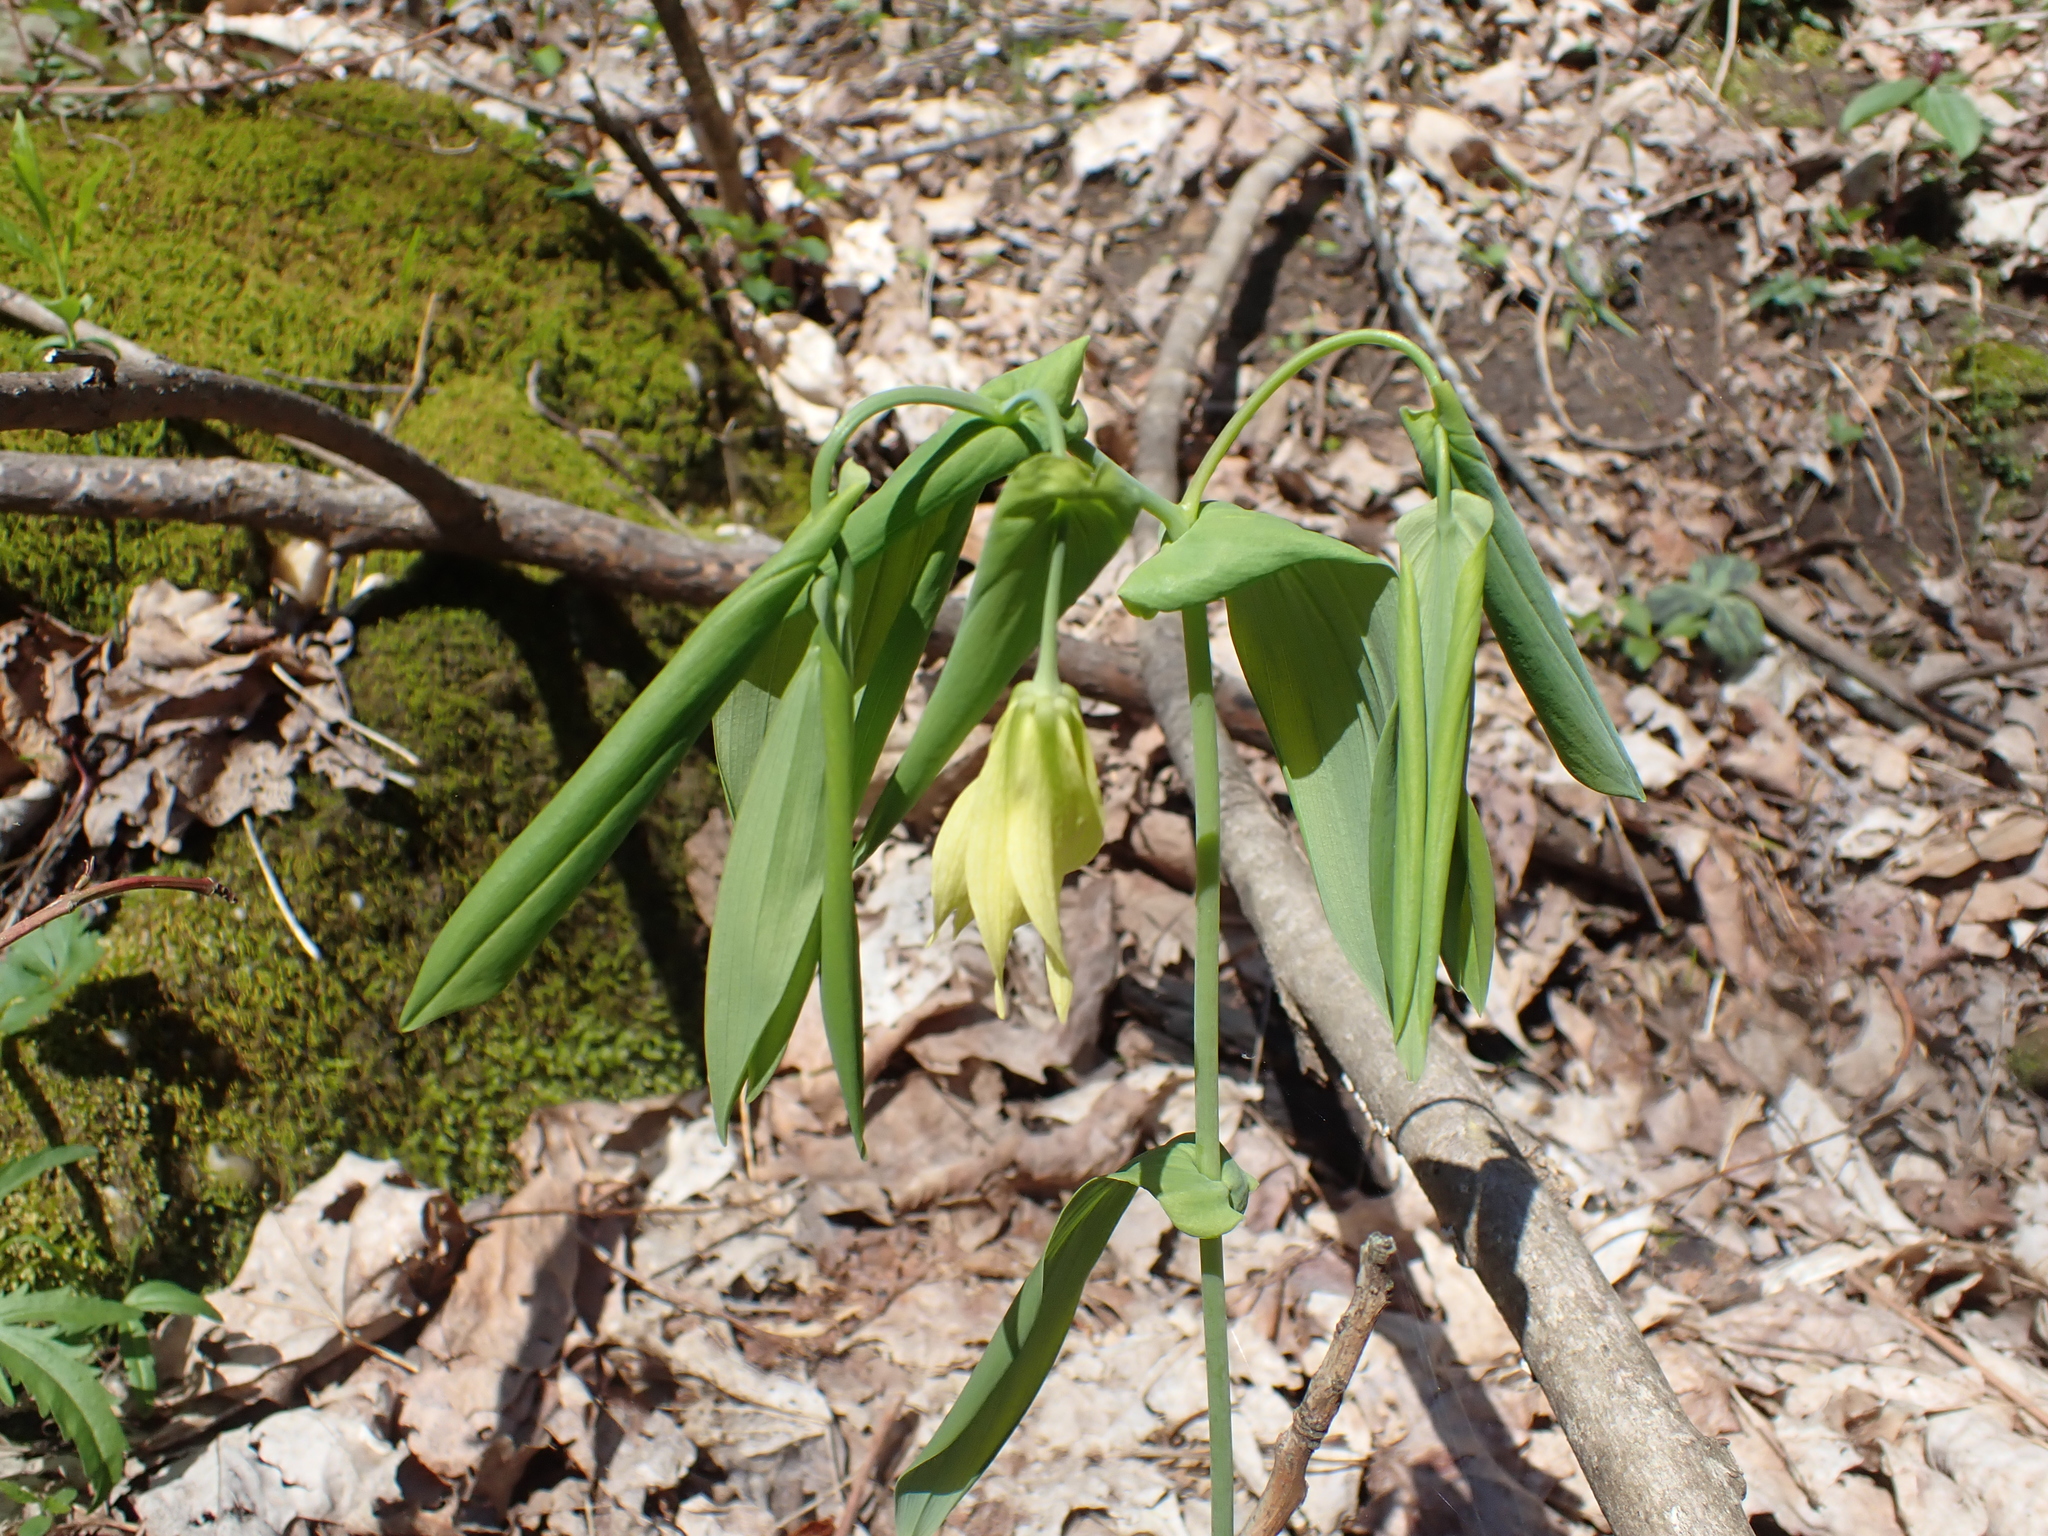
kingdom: Plantae
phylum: Tracheophyta
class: Liliopsida
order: Liliales
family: Colchicaceae
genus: Uvularia
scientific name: Uvularia grandiflora
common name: Bellwort
